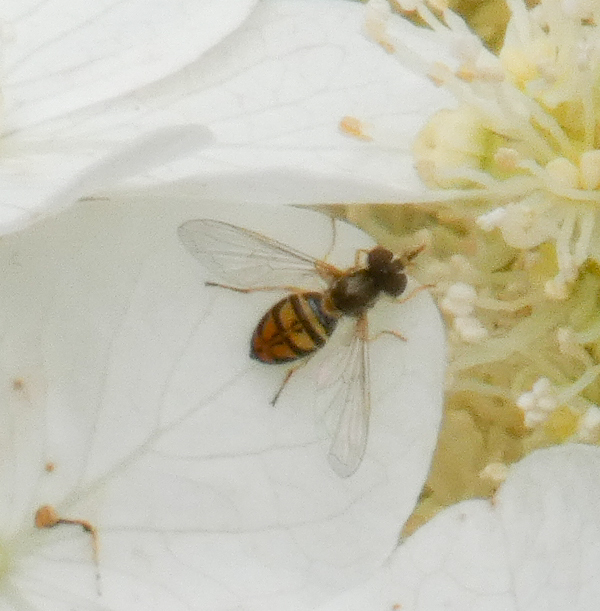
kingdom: Animalia
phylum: Arthropoda
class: Insecta
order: Diptera
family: Syrphidae
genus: Toxomerus
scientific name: Toxomerus marginatus
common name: Syrphid fly
